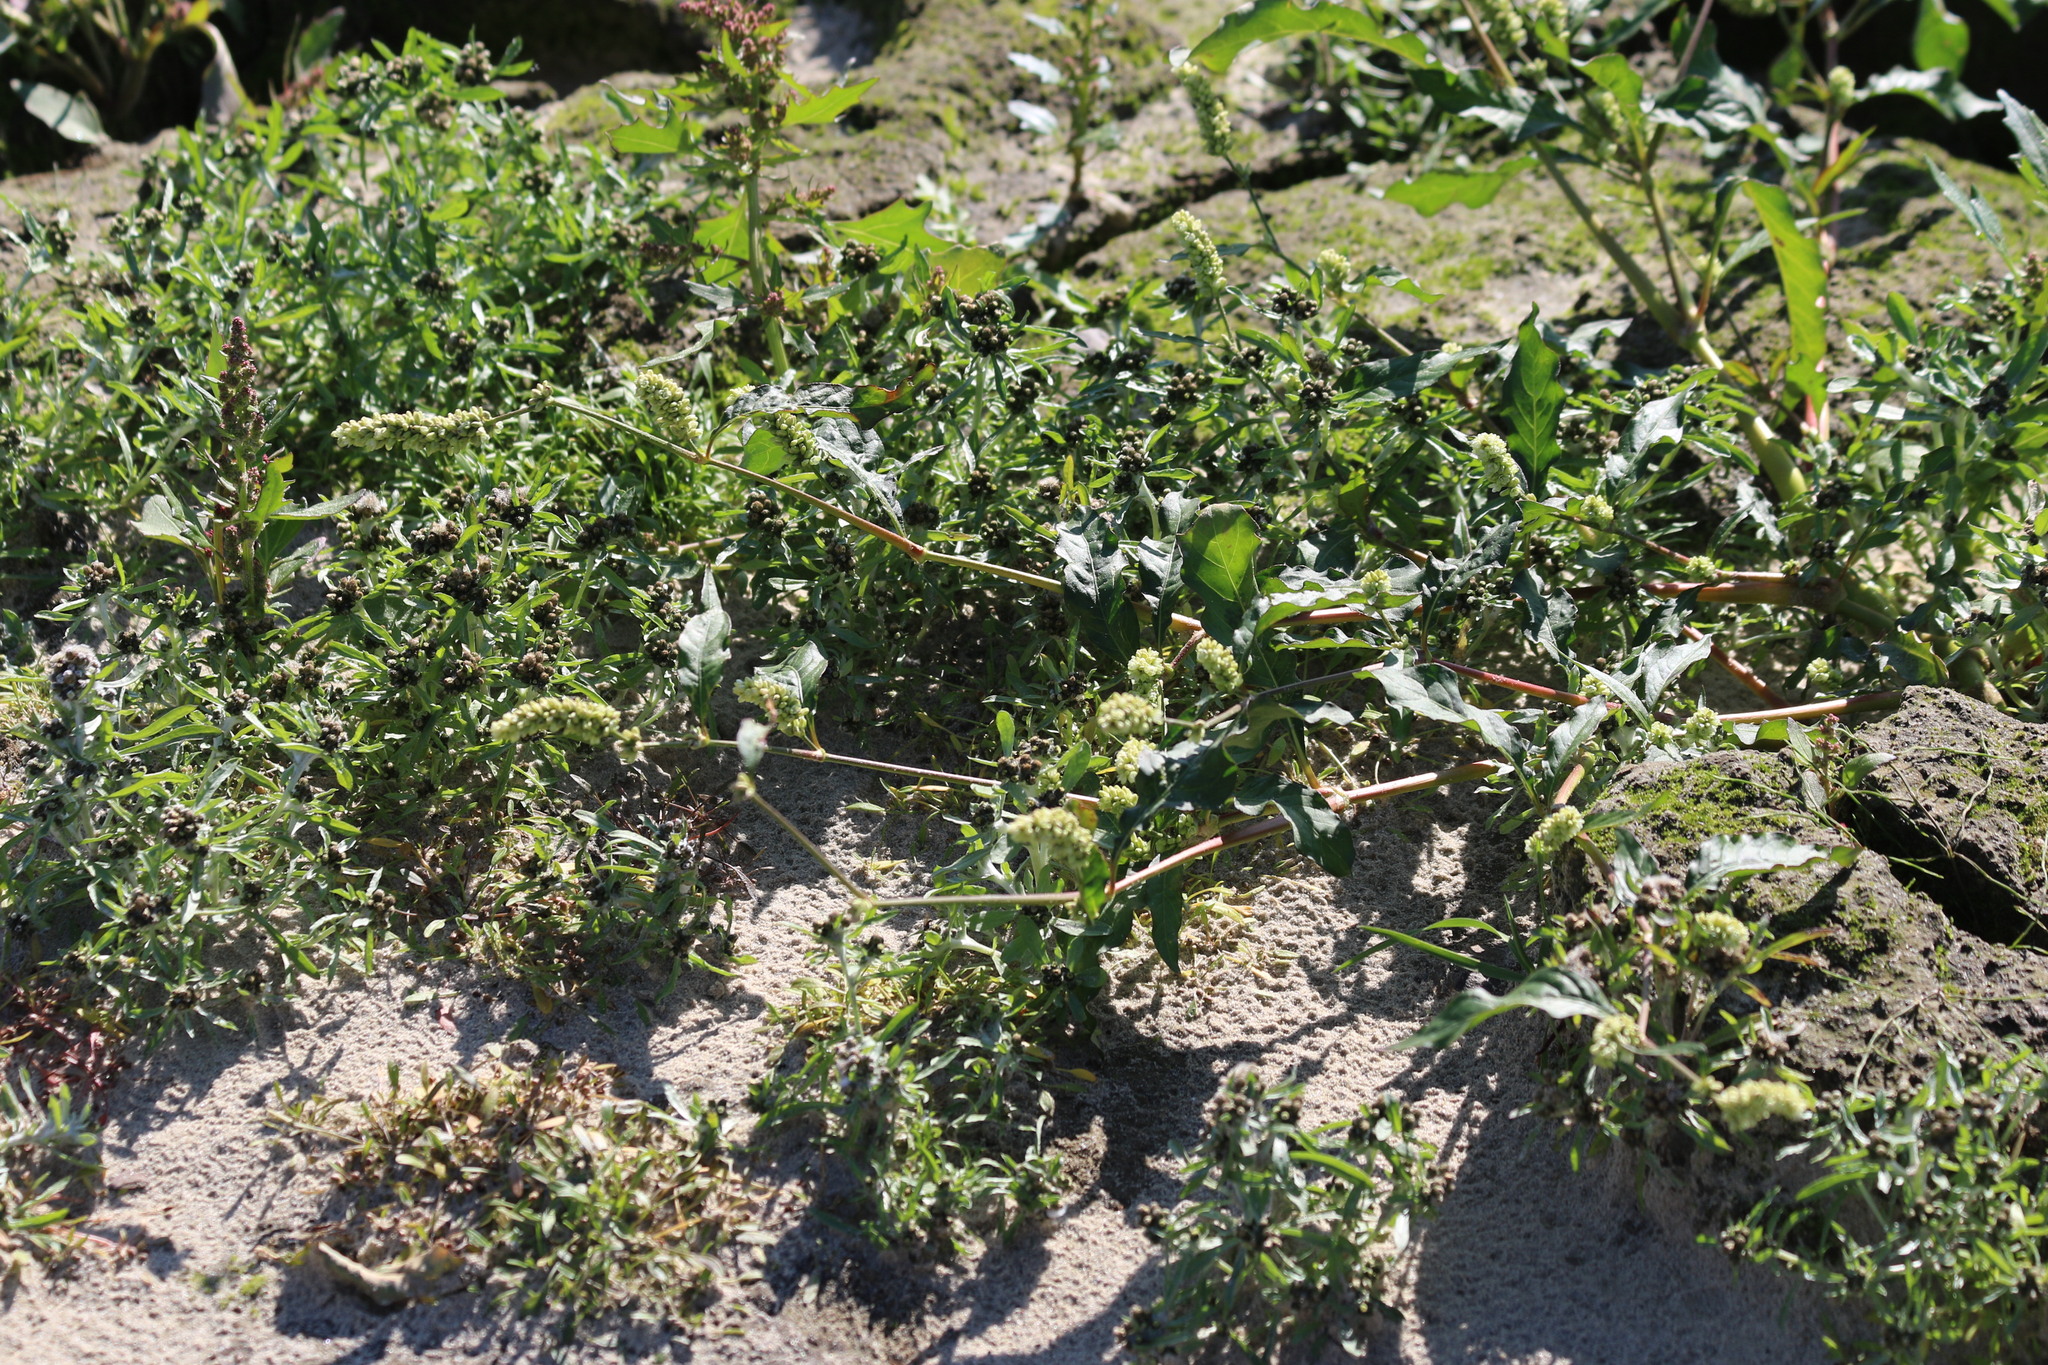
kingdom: Plantae
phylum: Tracheophyta
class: Magnoliopsida
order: Caryophyllales
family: Polygonaceae
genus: Persicaria
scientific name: Persicaria lapathifolia
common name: Curlytop knotweed
